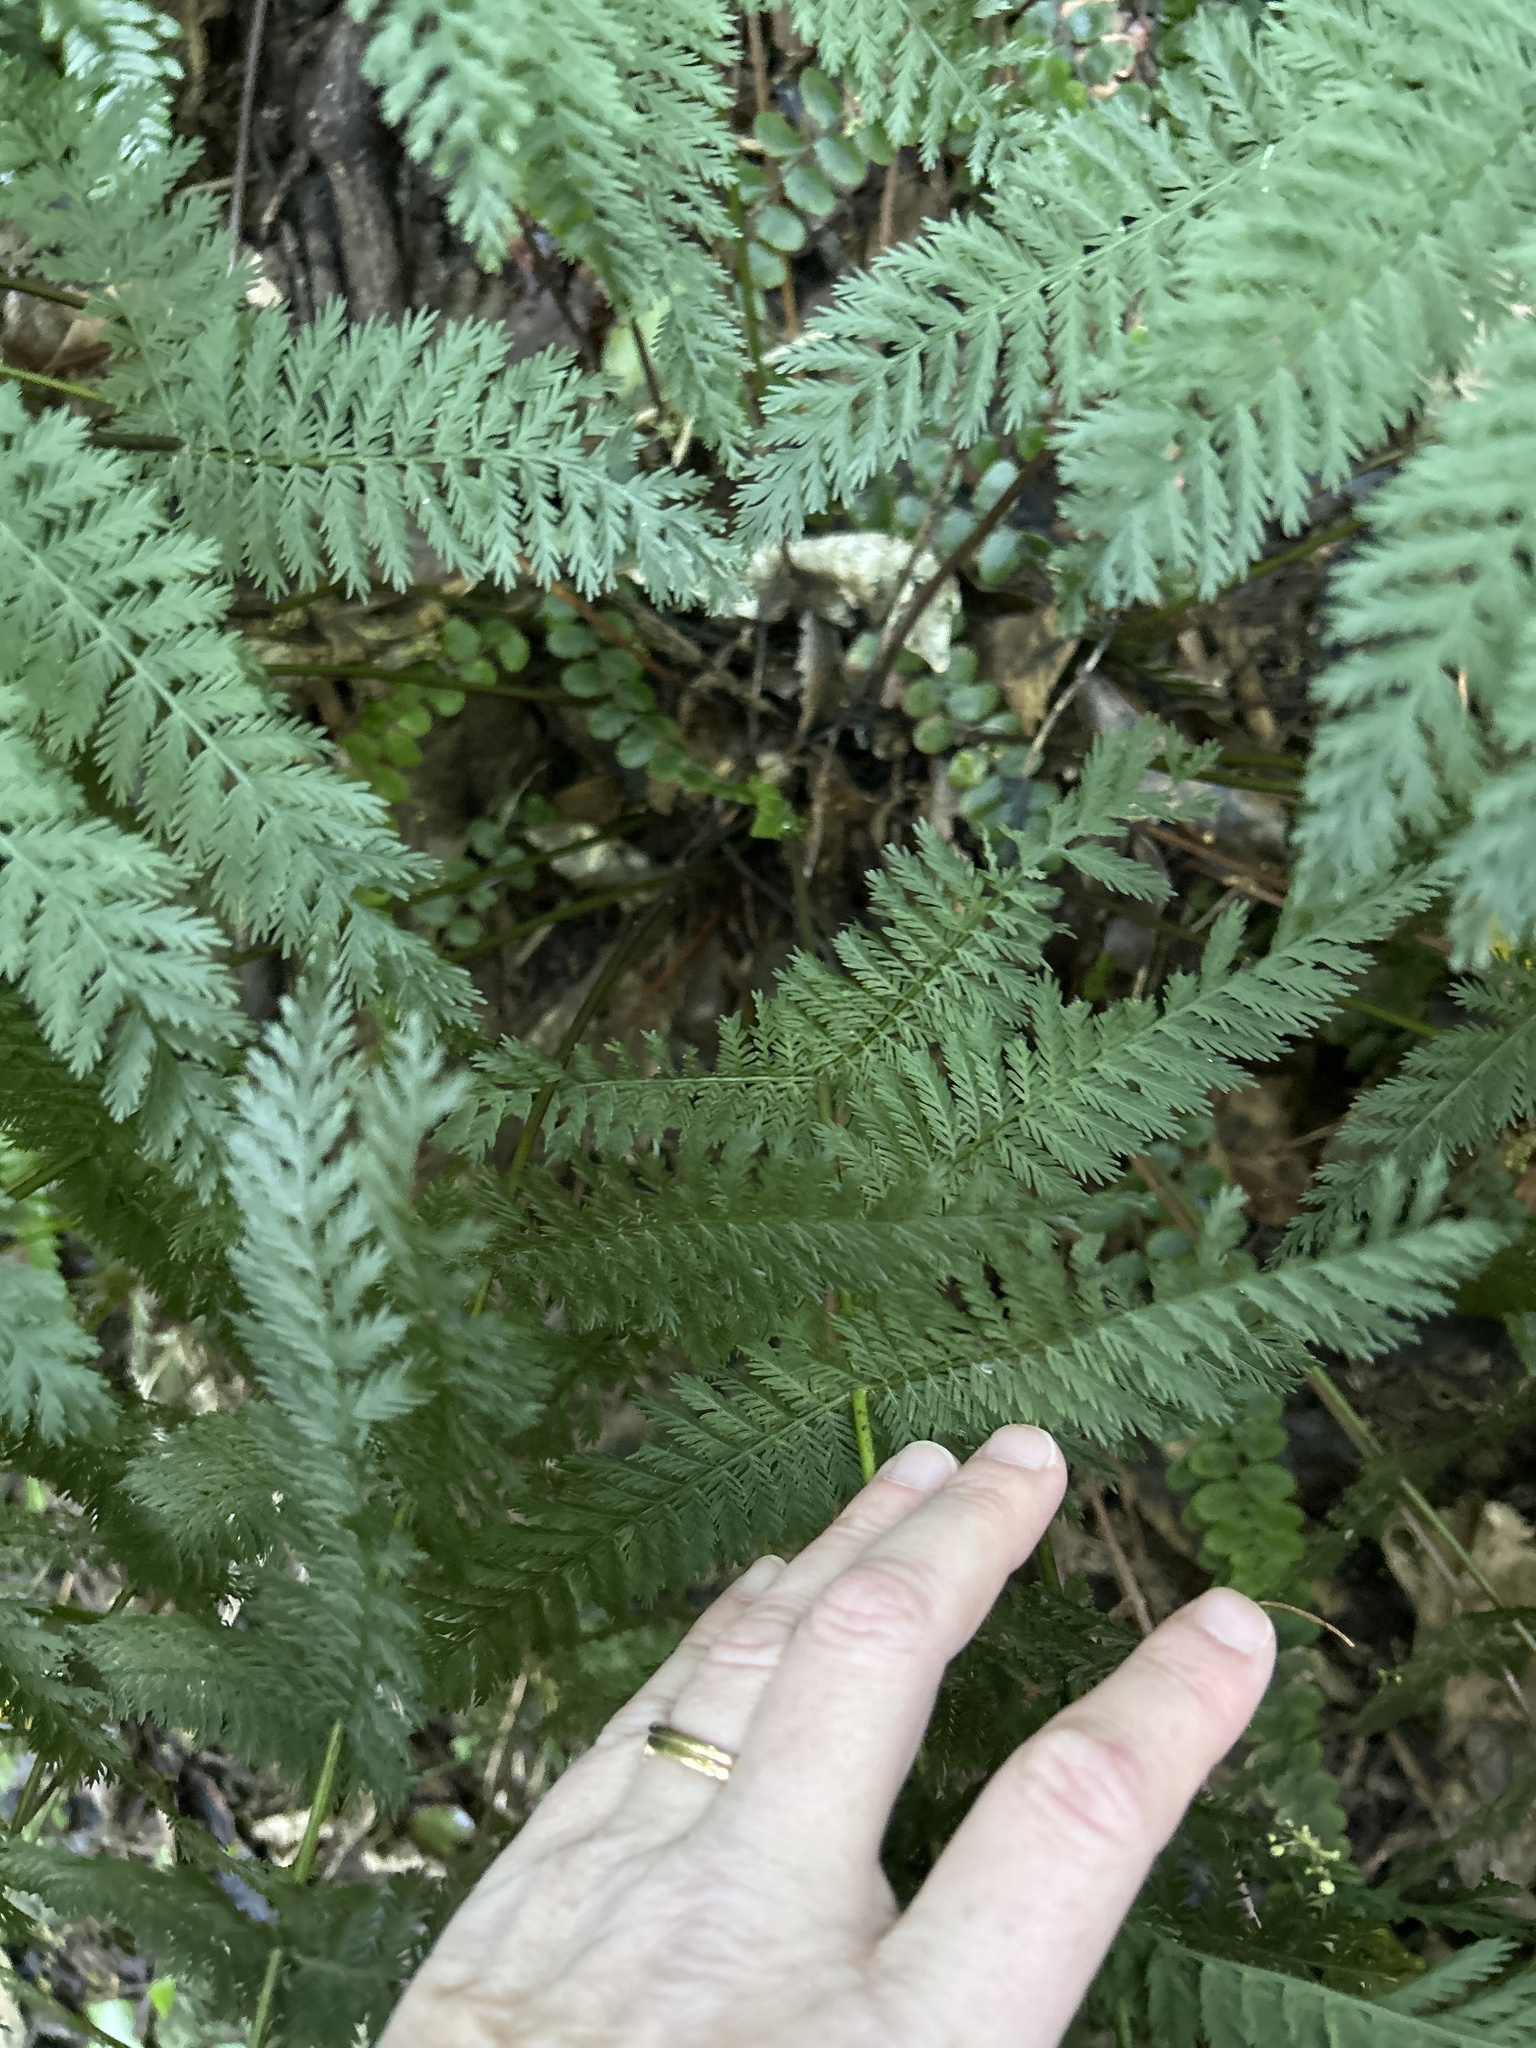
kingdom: Plantae
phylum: Tracheophyta
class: Polypodiopsida
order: Osmundales
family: Osmundaceae
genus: Leptopteris
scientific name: Leptopteris hymenophylloides
